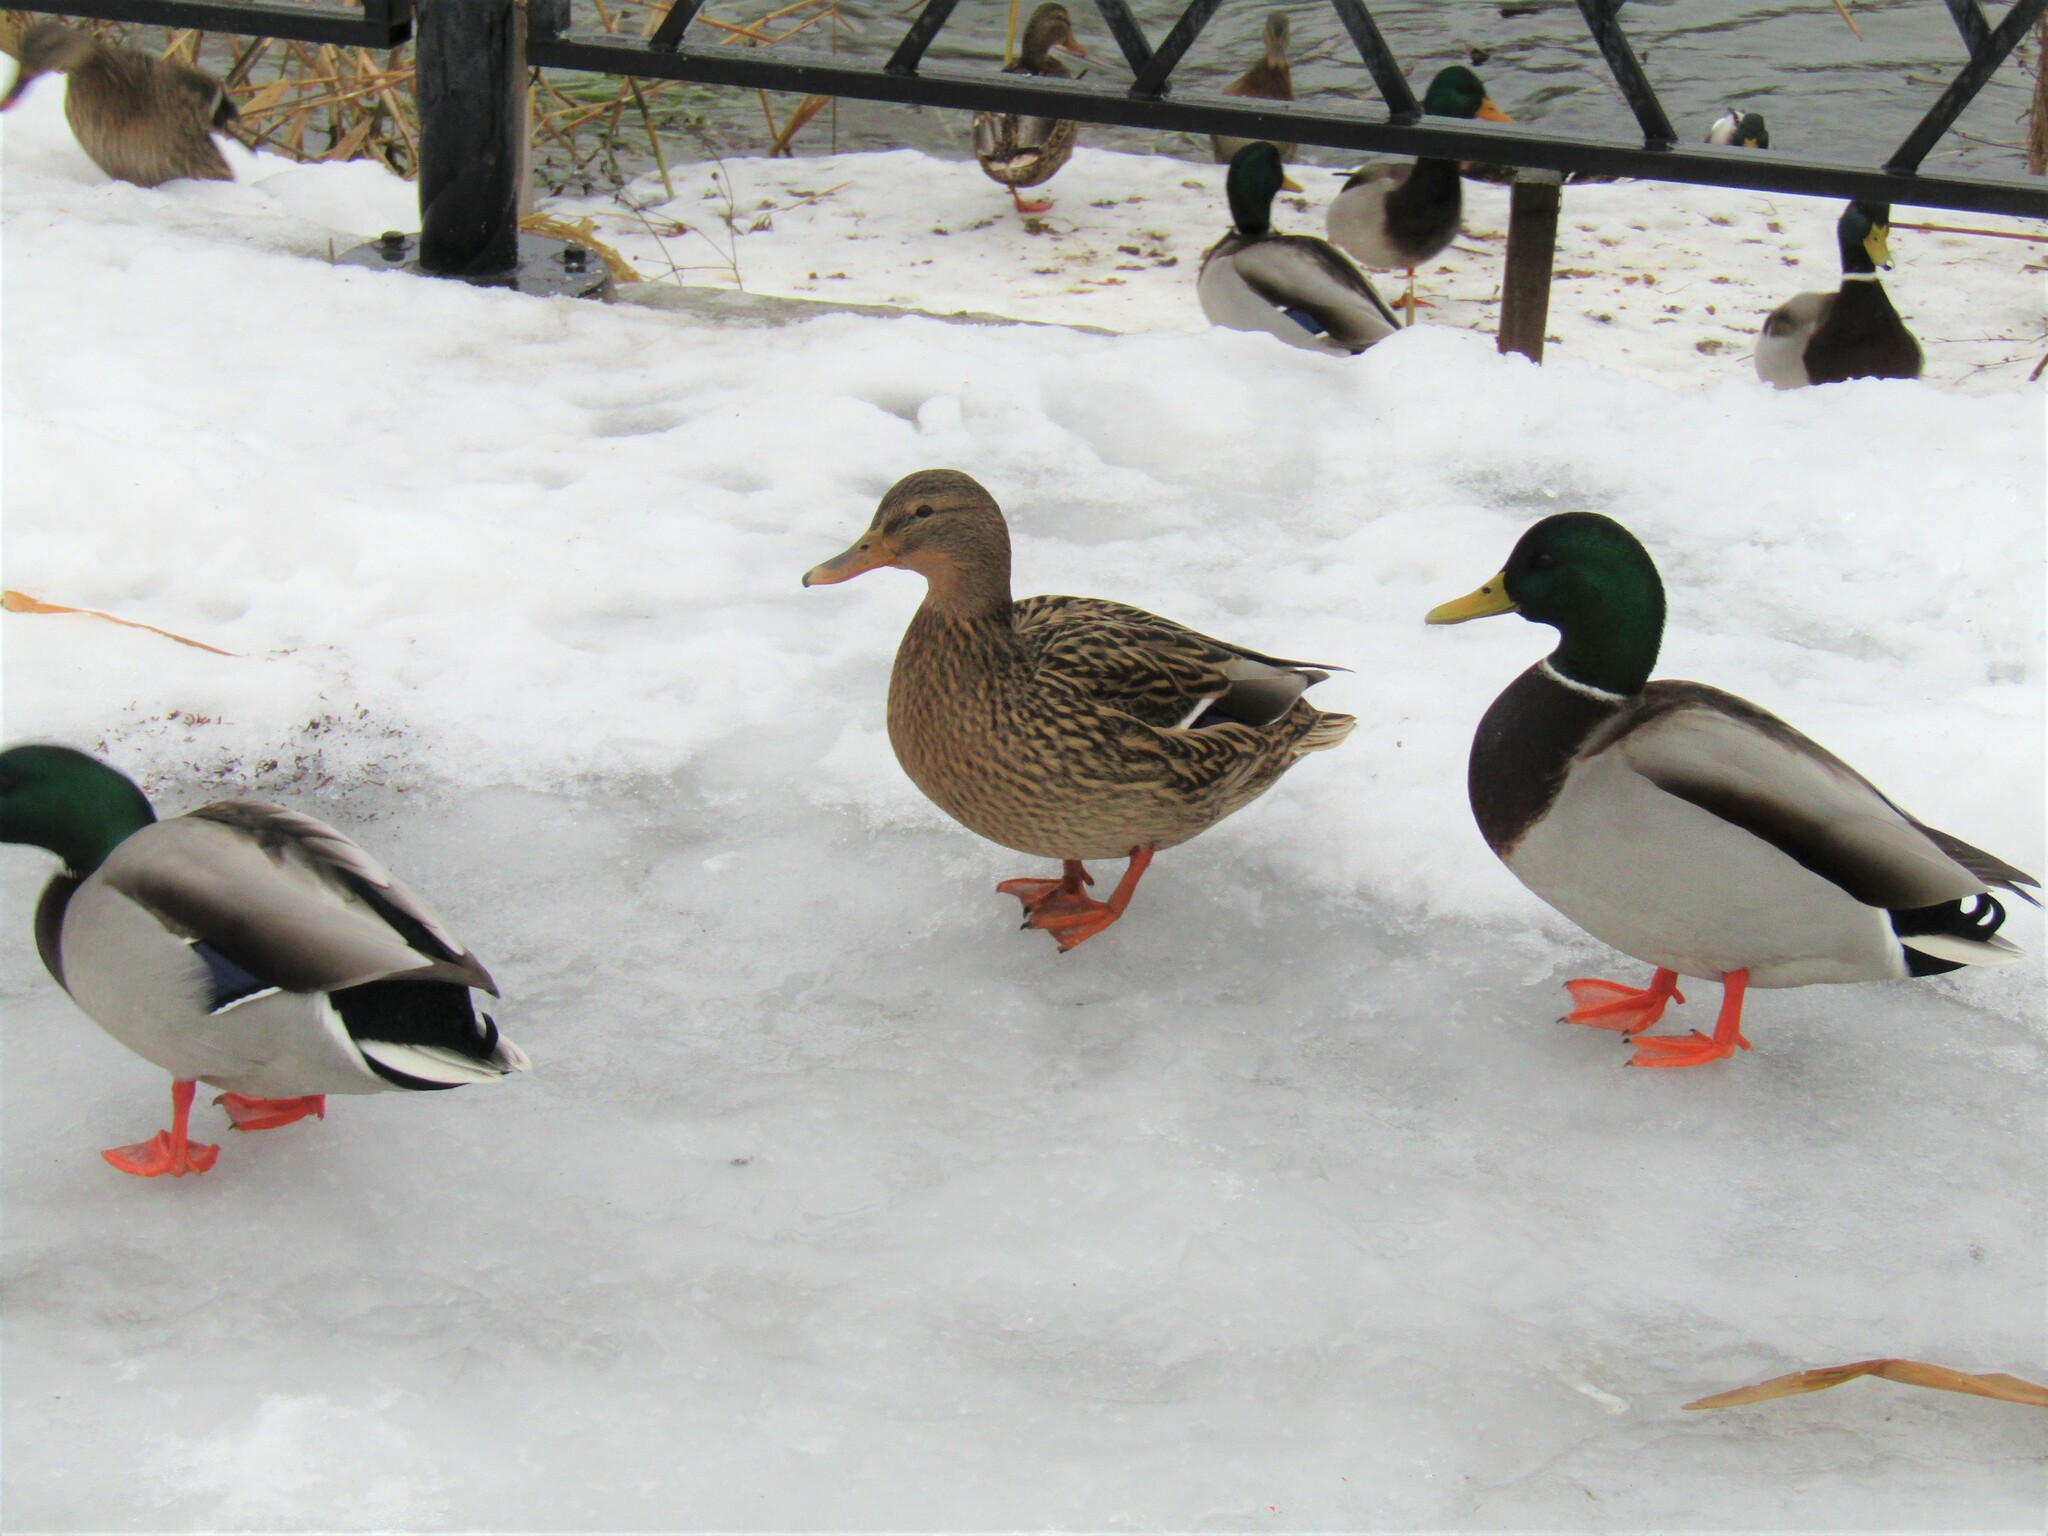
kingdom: Animalia
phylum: Chordata
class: Aves
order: Anseriformes
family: Anatidae
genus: Anas
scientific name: Anas platyrhynchos
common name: Mallard
